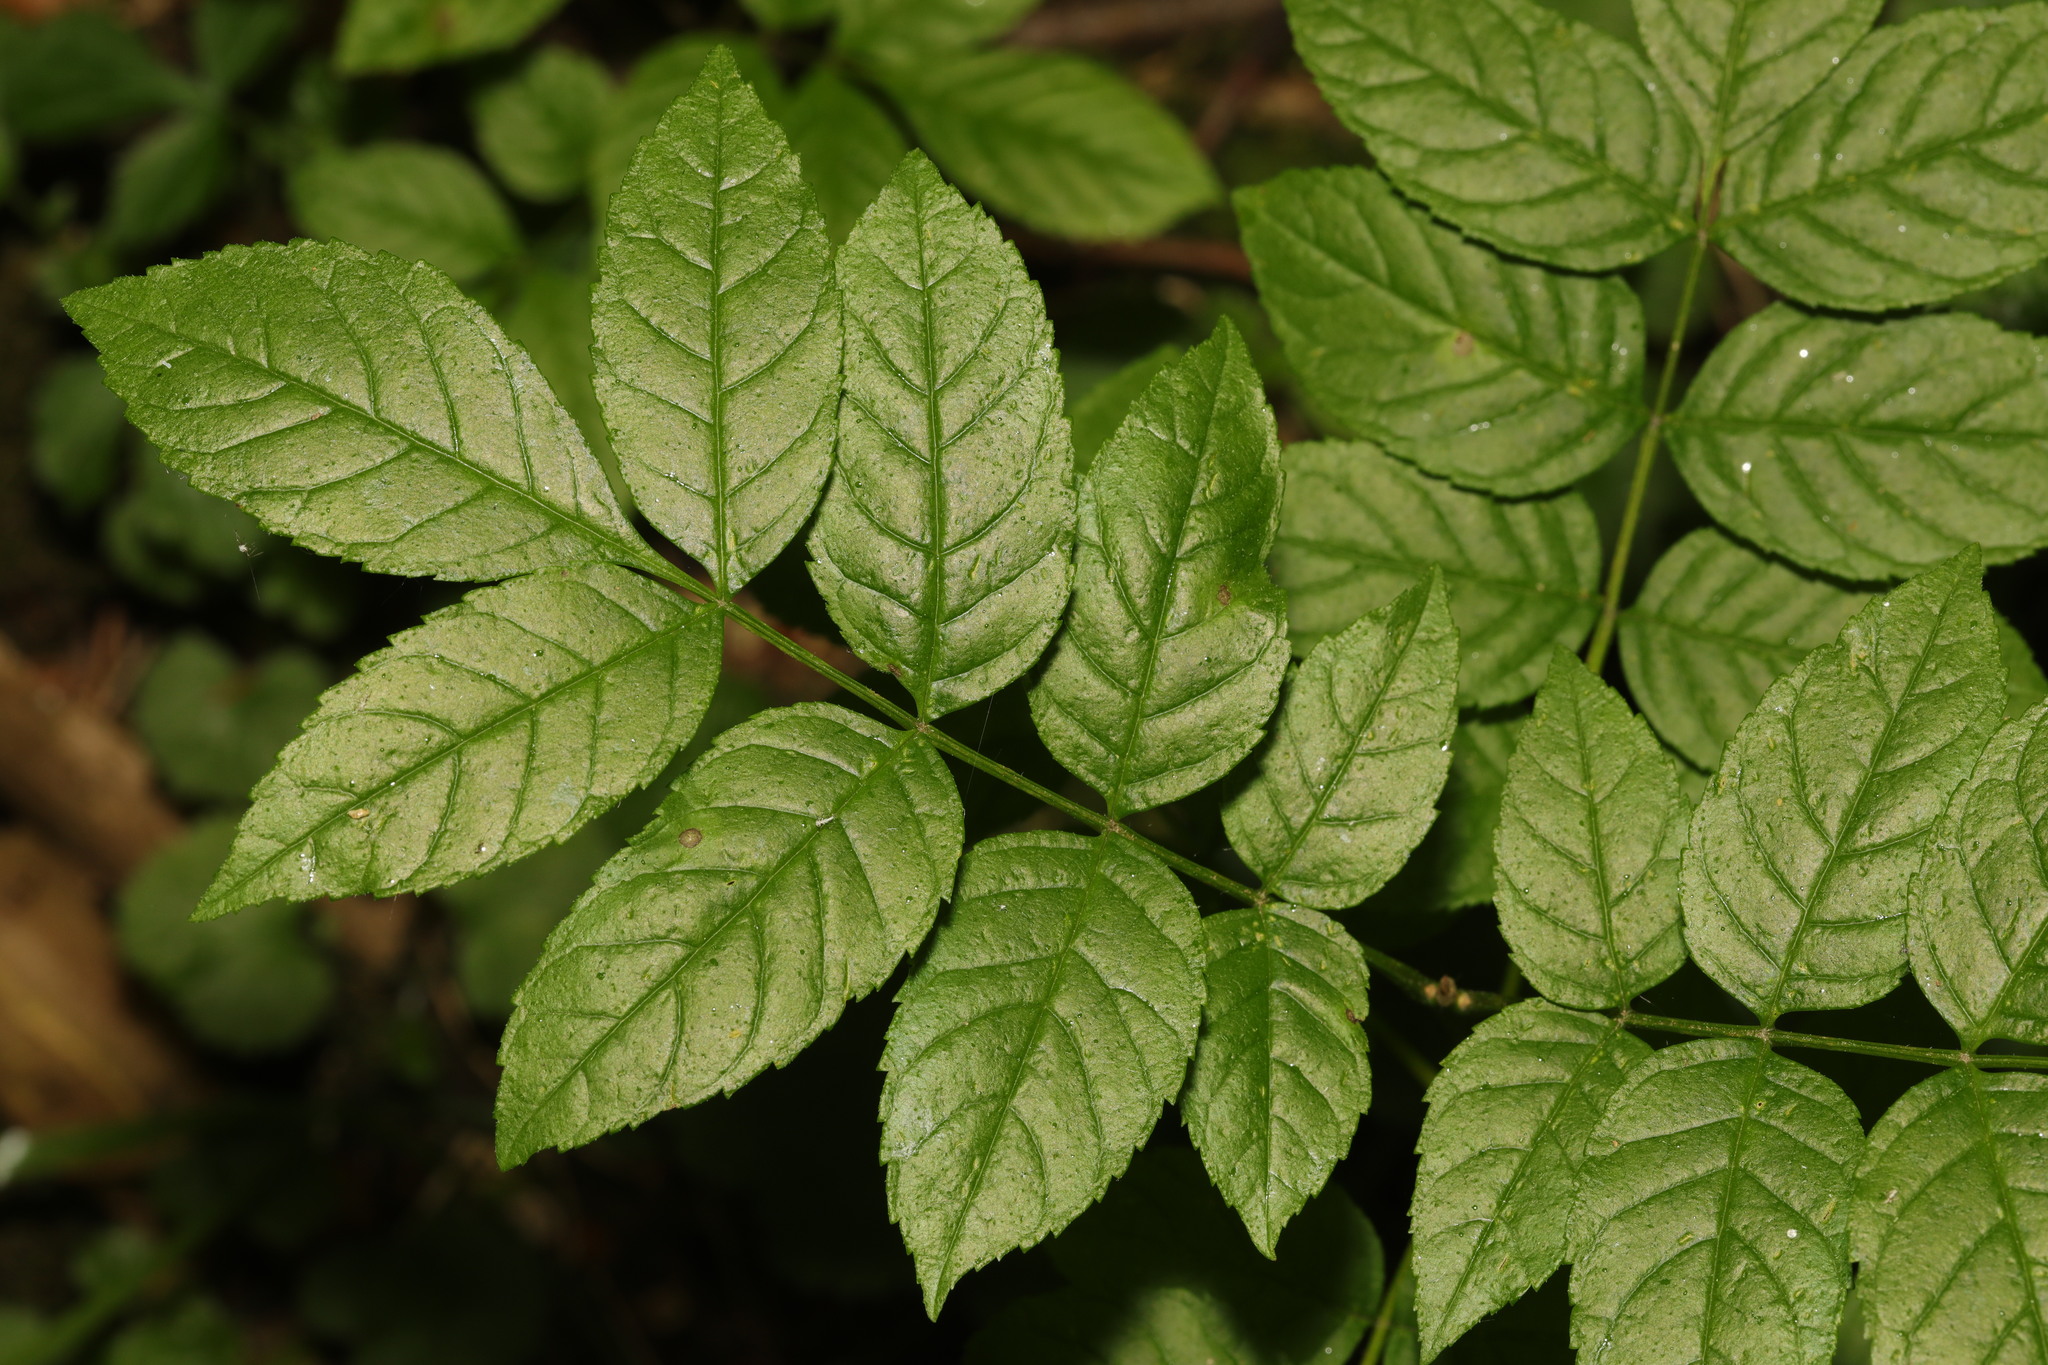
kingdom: Plantae
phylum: Tracheophyta
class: Magnoliopsida
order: Lamiales
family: Oleaceae
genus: Fraxinus
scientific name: Fraxinus excelsior
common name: European ash
